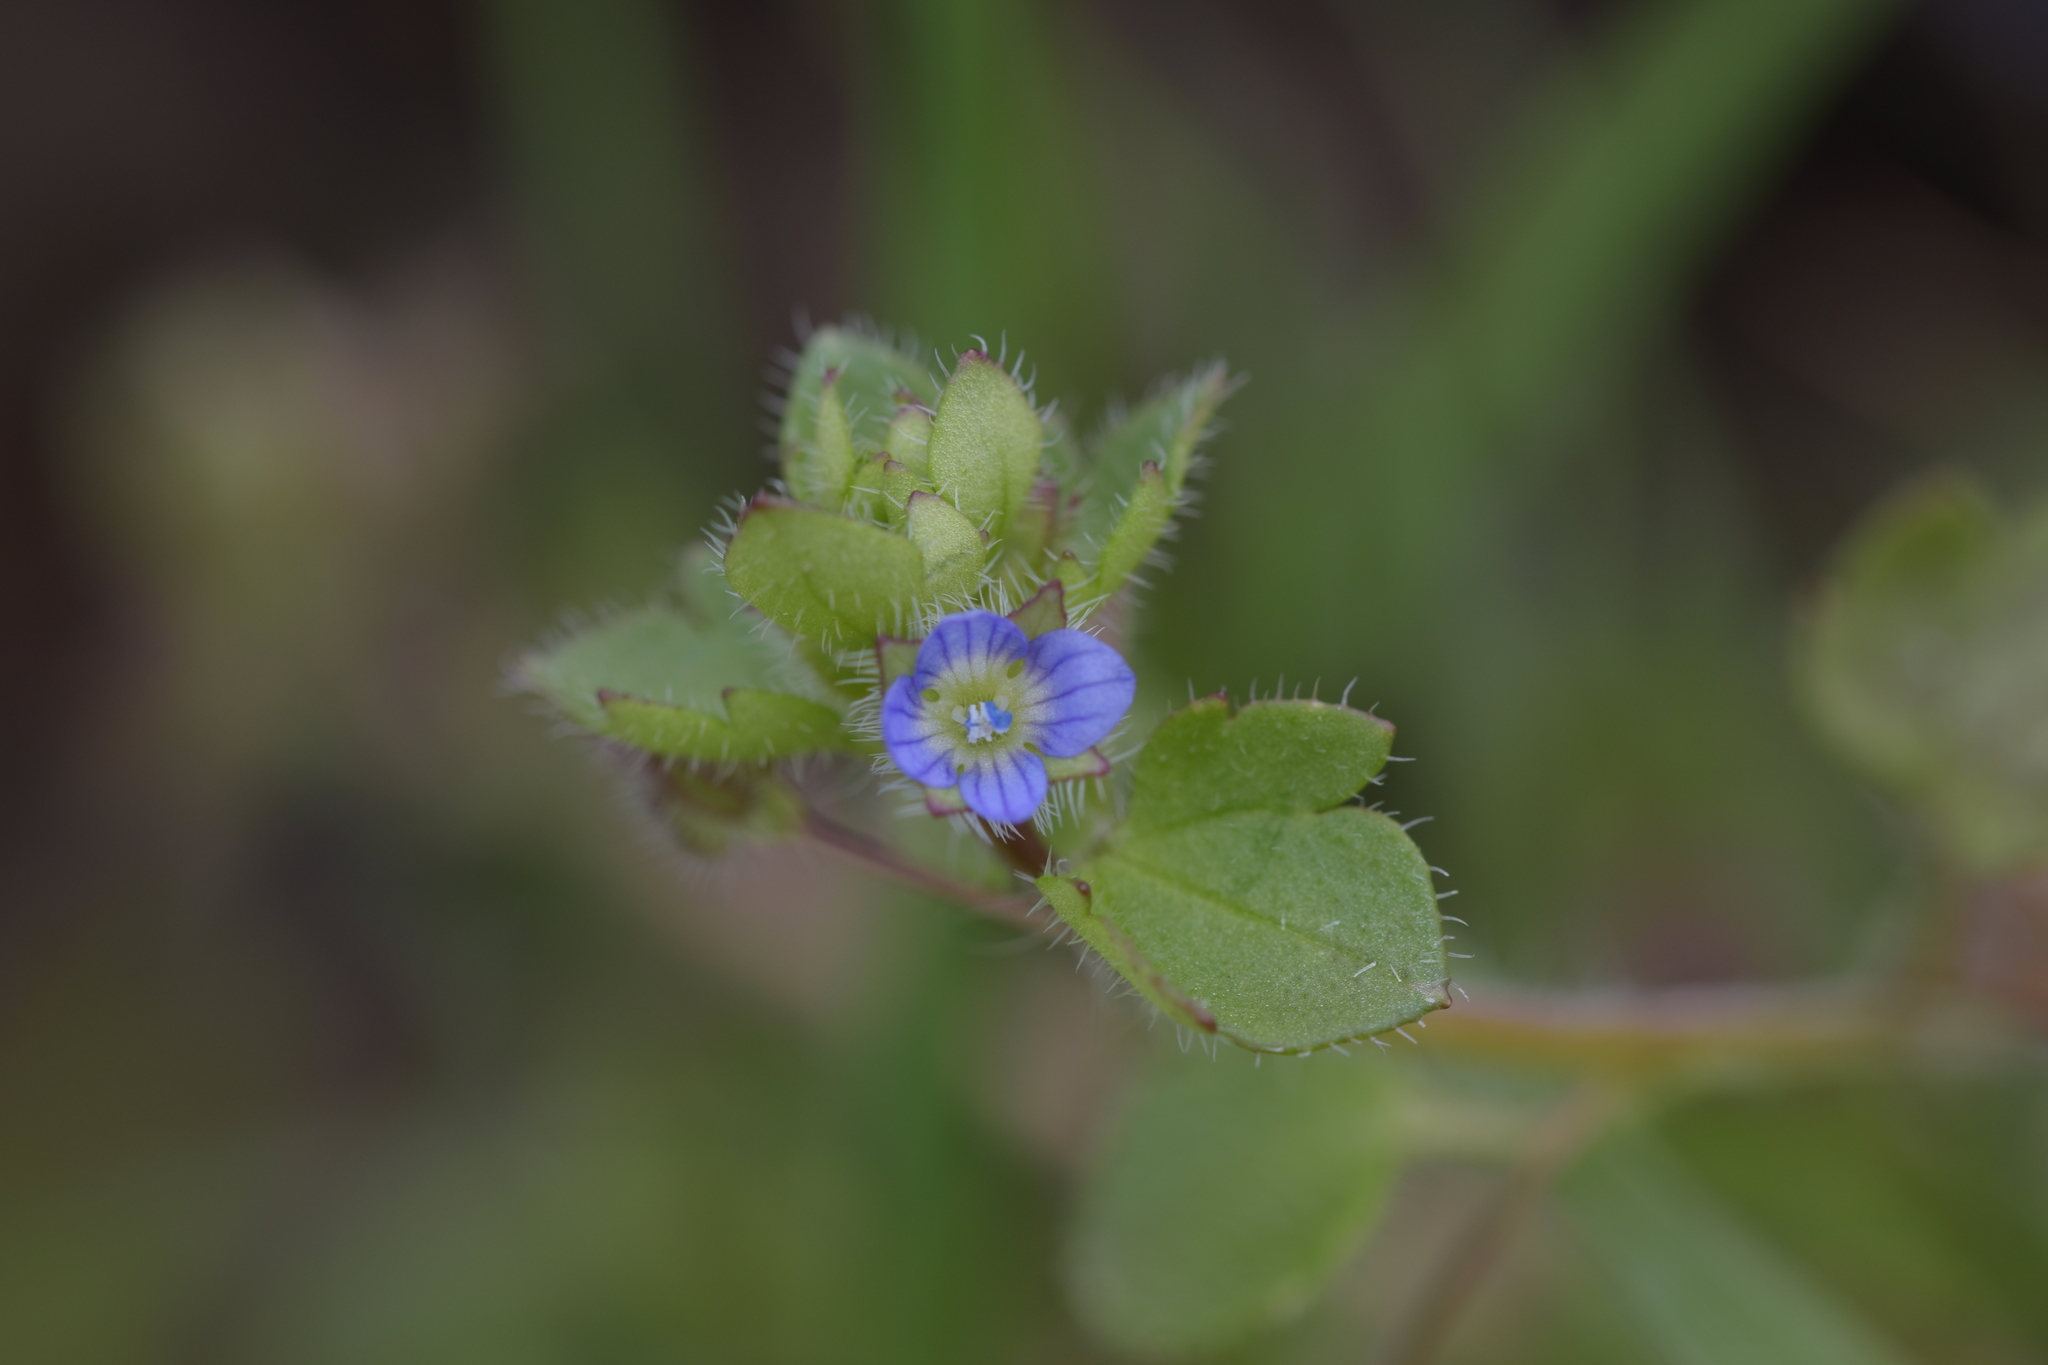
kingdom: Plantae
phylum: Tracheophyta
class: Magnoliopsida
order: Lamiales
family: Plantaginaceae
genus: Veronica
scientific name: Veronica hederifolia
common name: Ivy-leaved speedwell
